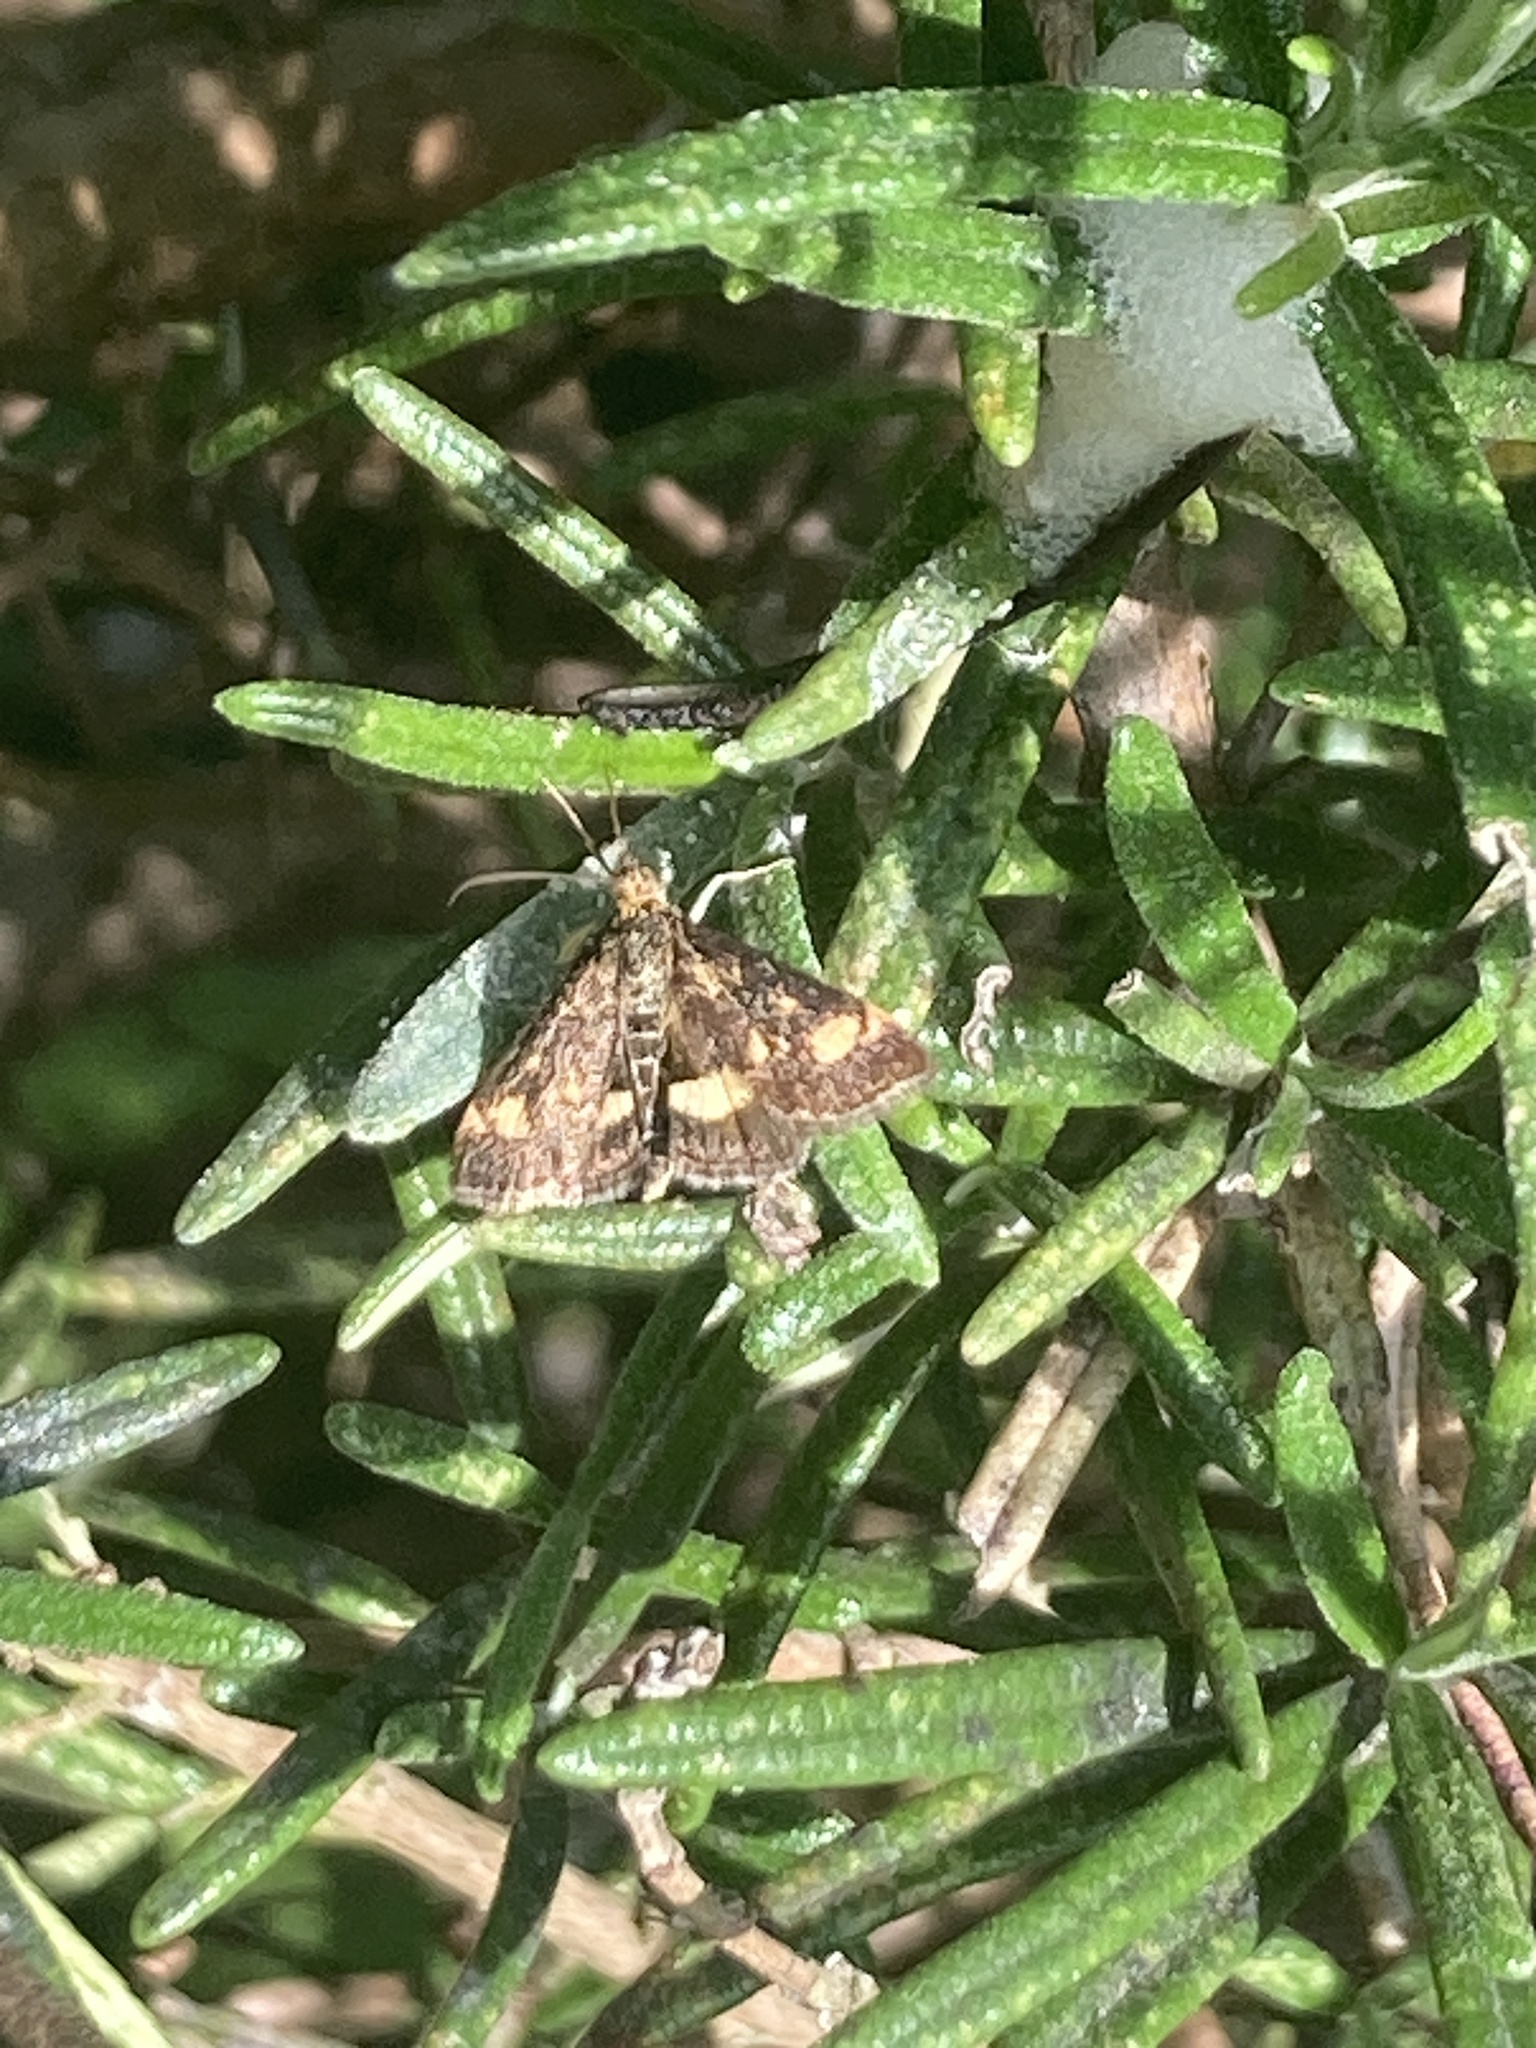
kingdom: Animalia
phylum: Arthropoda
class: Insecta
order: Lepidoptera
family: Crambidae
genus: Pyrausta
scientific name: Pyrausta aurata
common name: Small purple & gold
